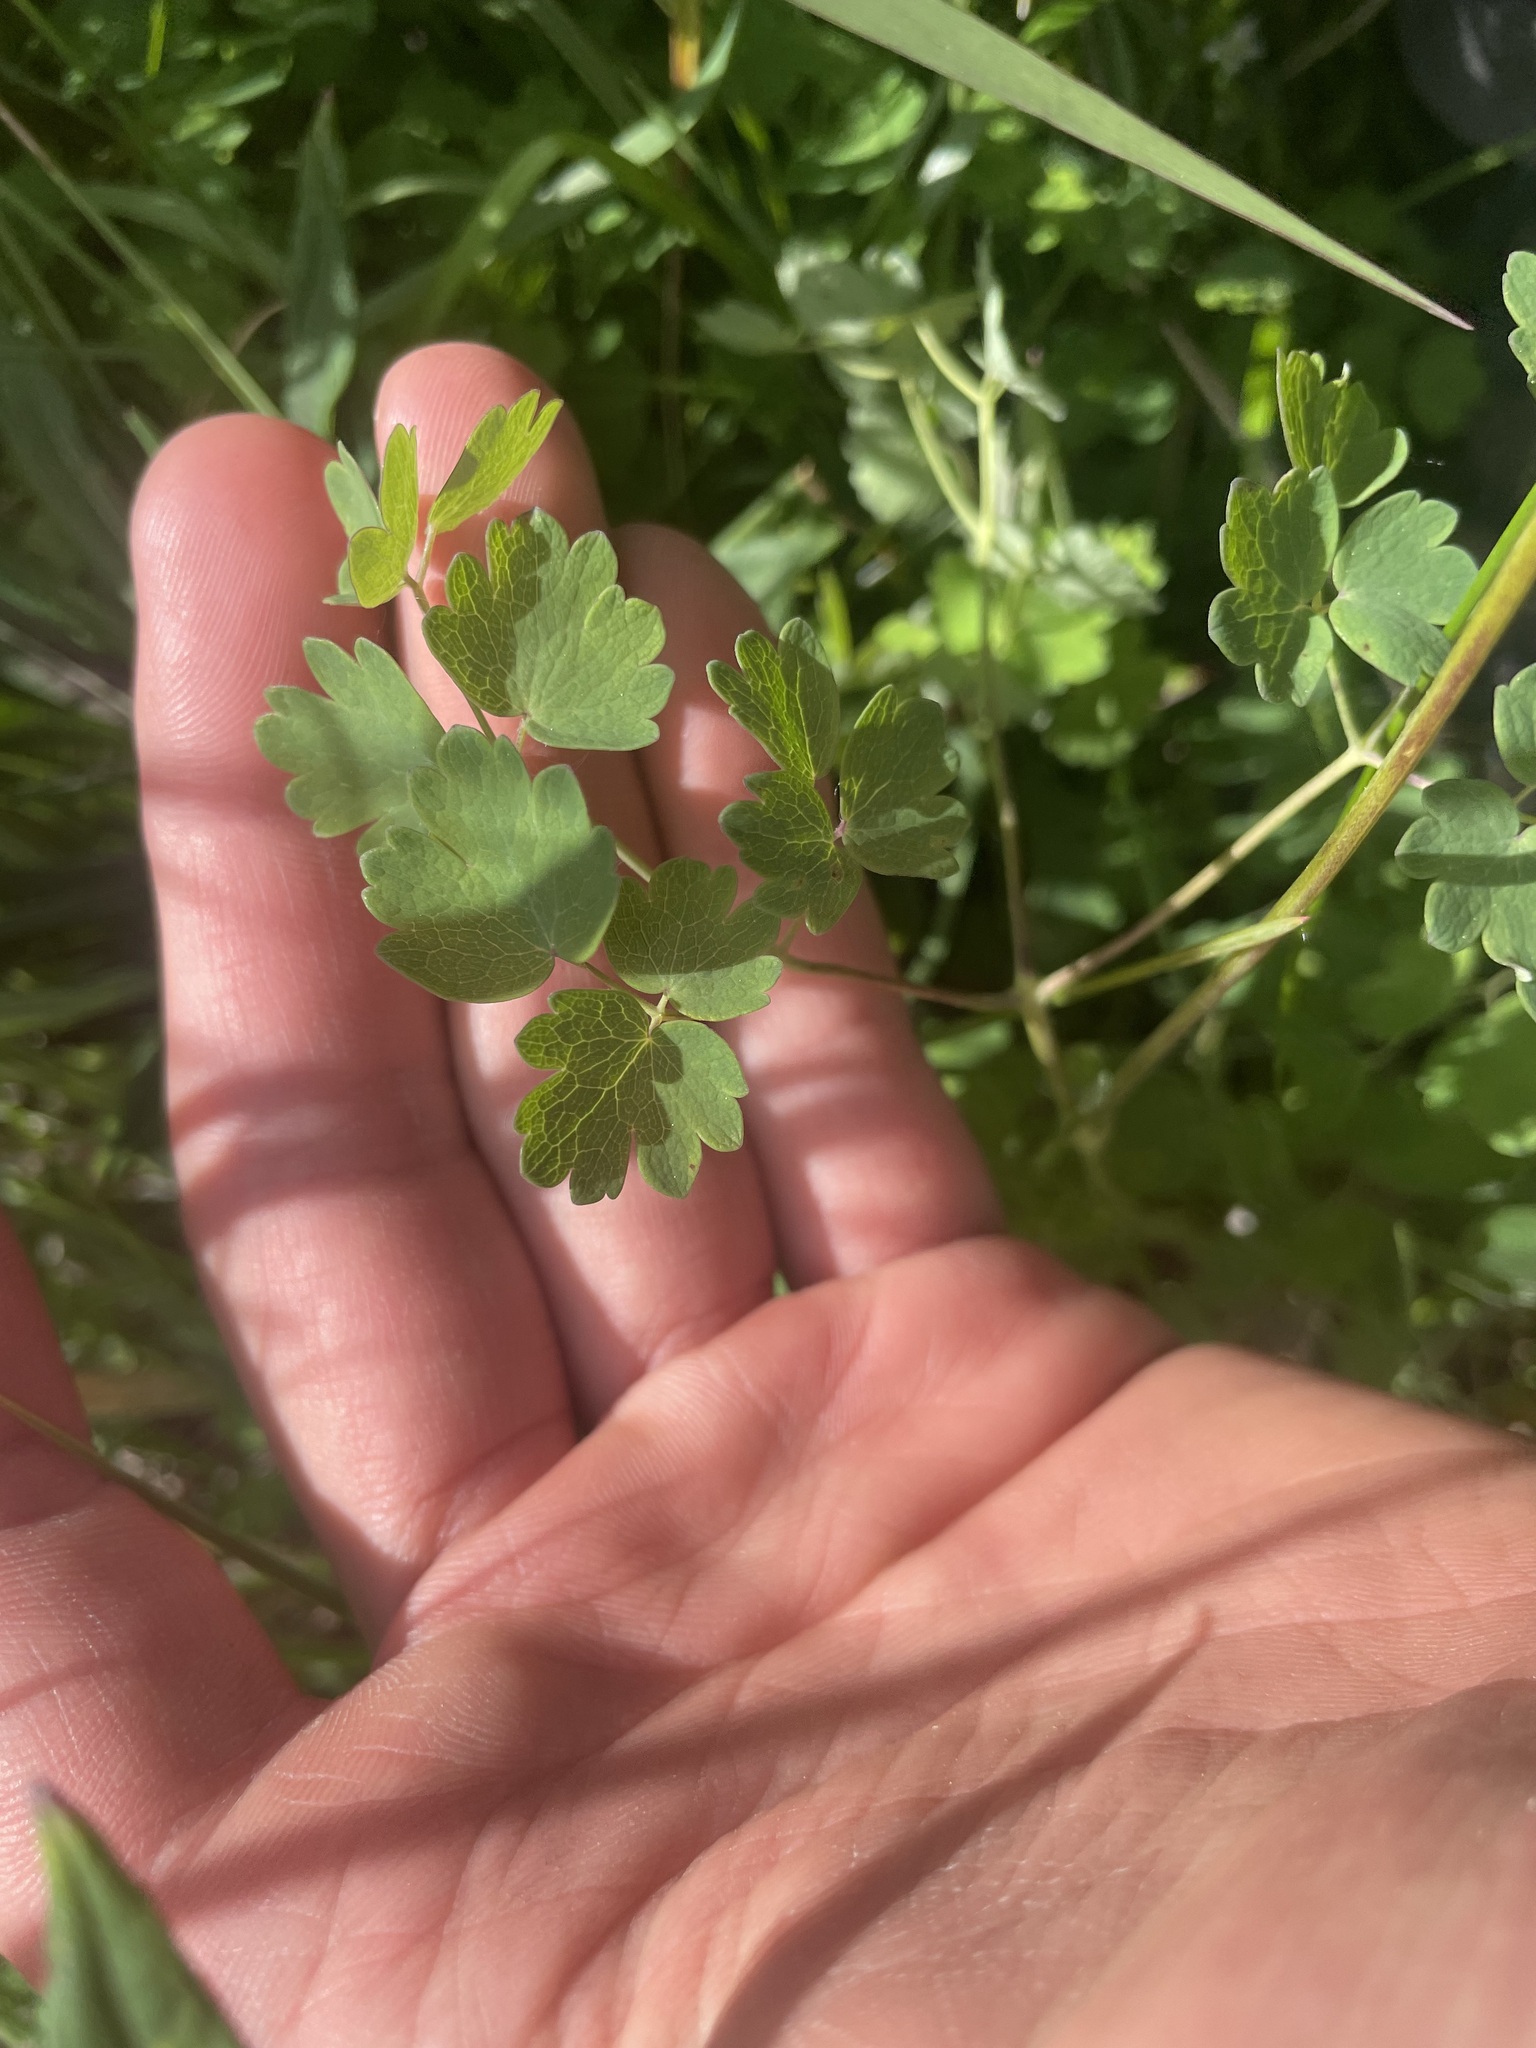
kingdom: Plantae
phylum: Tracheophyta
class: Magnoliopsida
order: Ranunculales
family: Ranunculaceae
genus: Thalictrum
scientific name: Thalictrum venulosum
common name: Early meadow-rue
